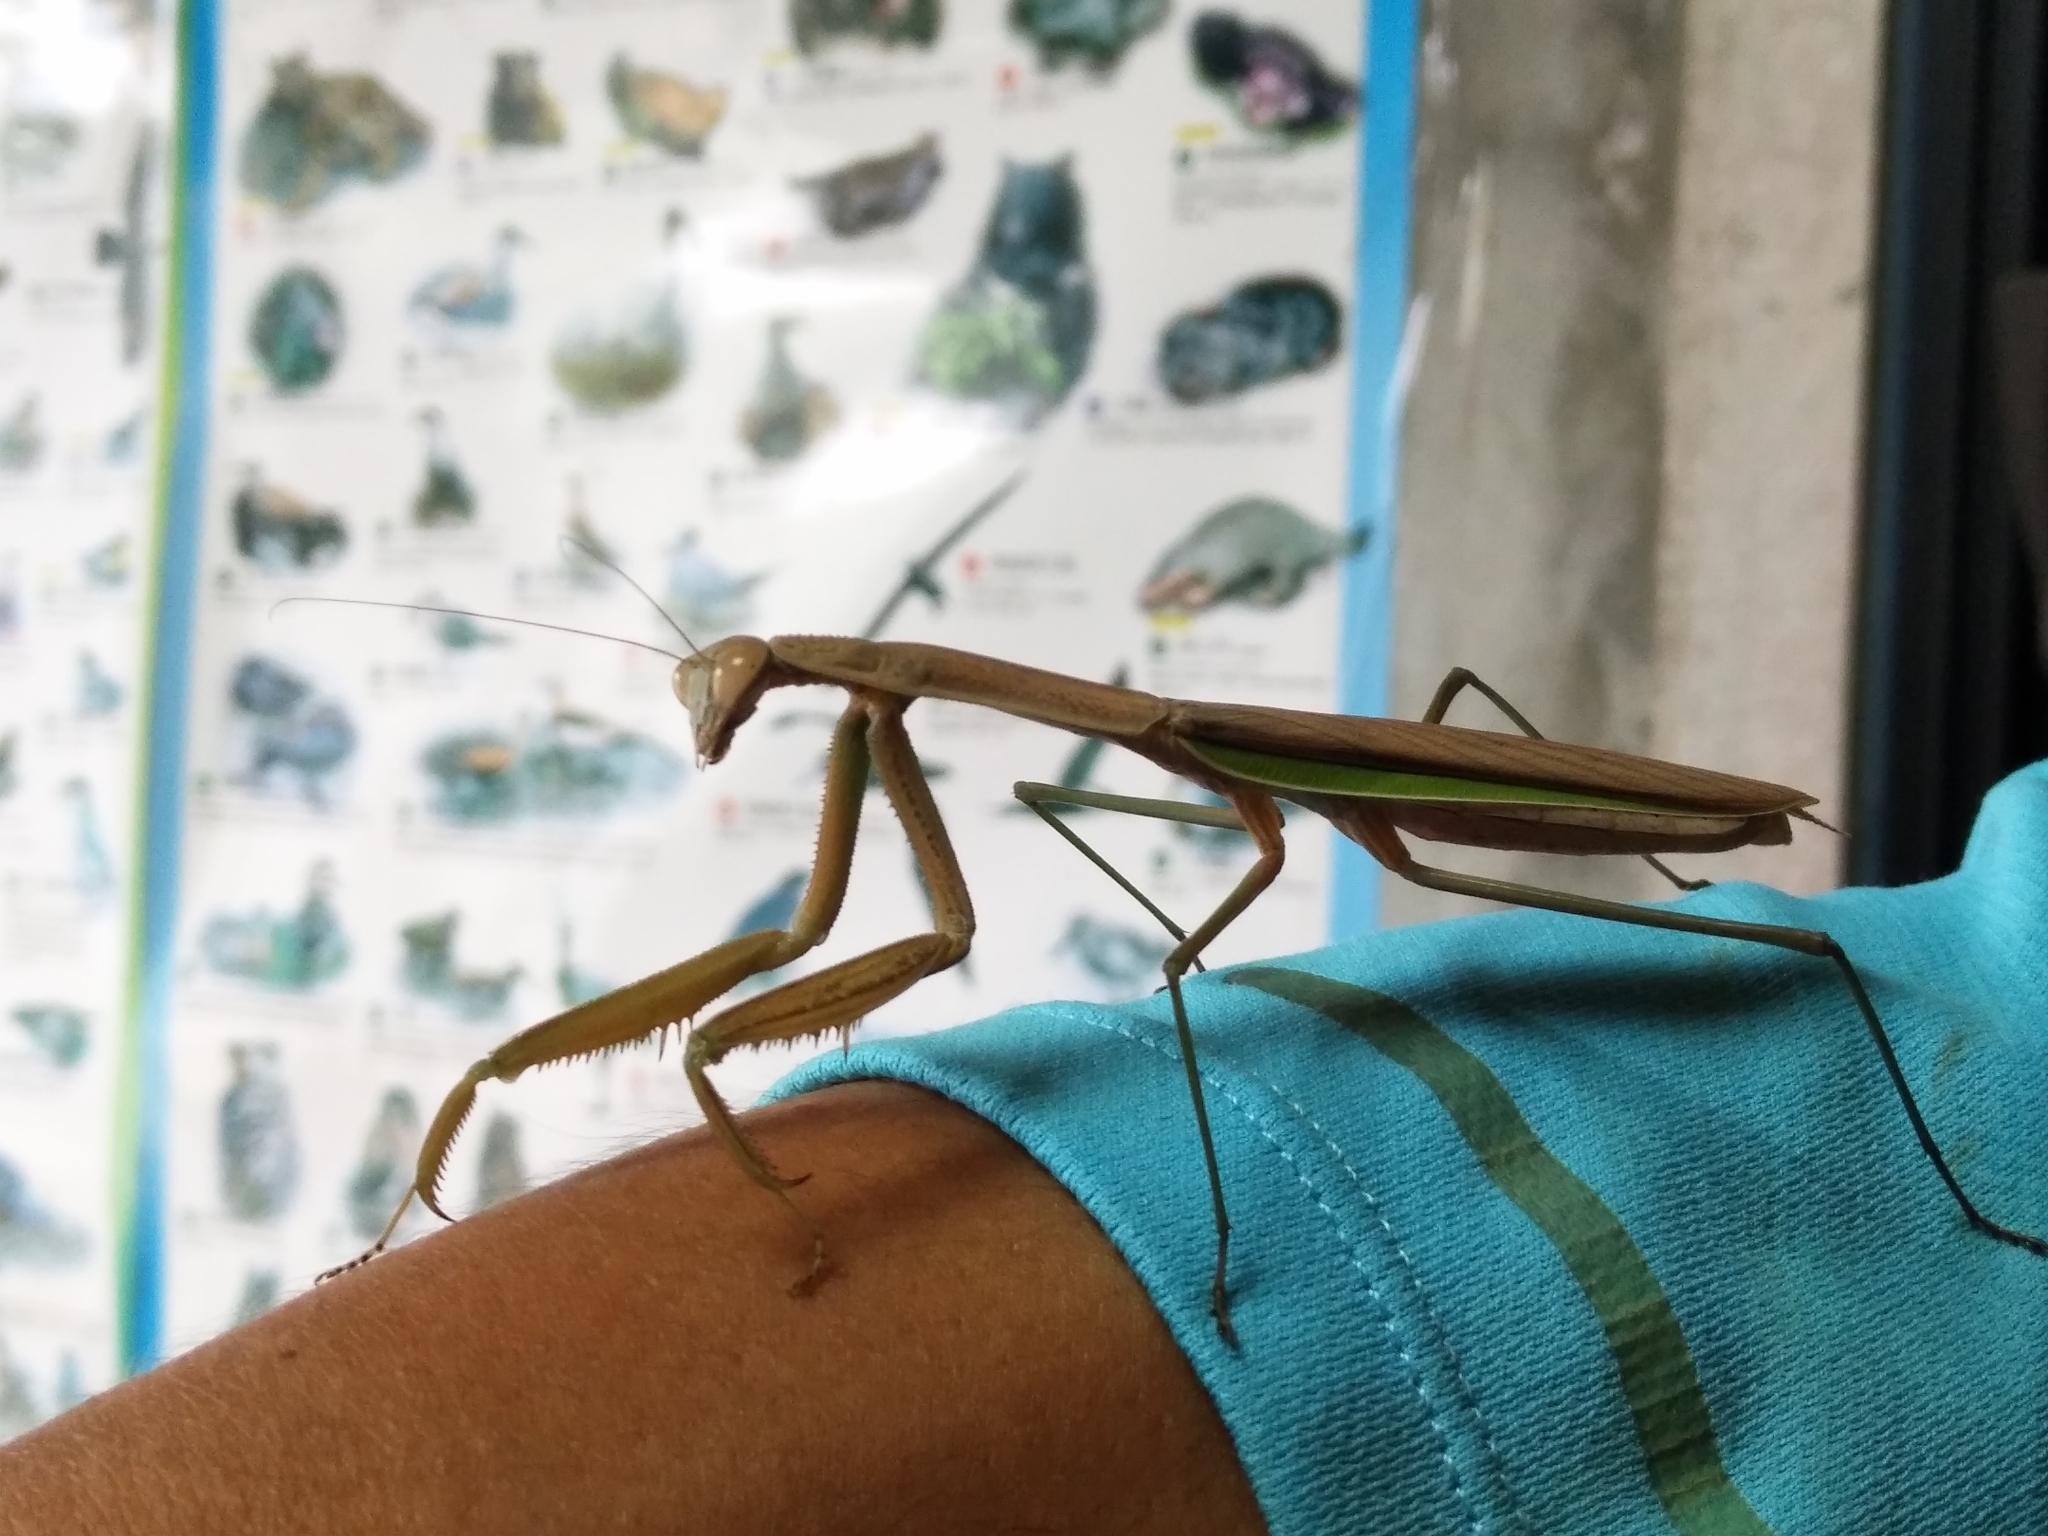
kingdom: Animalia
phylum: Arthropoda
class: Insecta
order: Mantodea
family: Mantidae
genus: Tenodera
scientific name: Tenodera aridifolia
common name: Mantis
